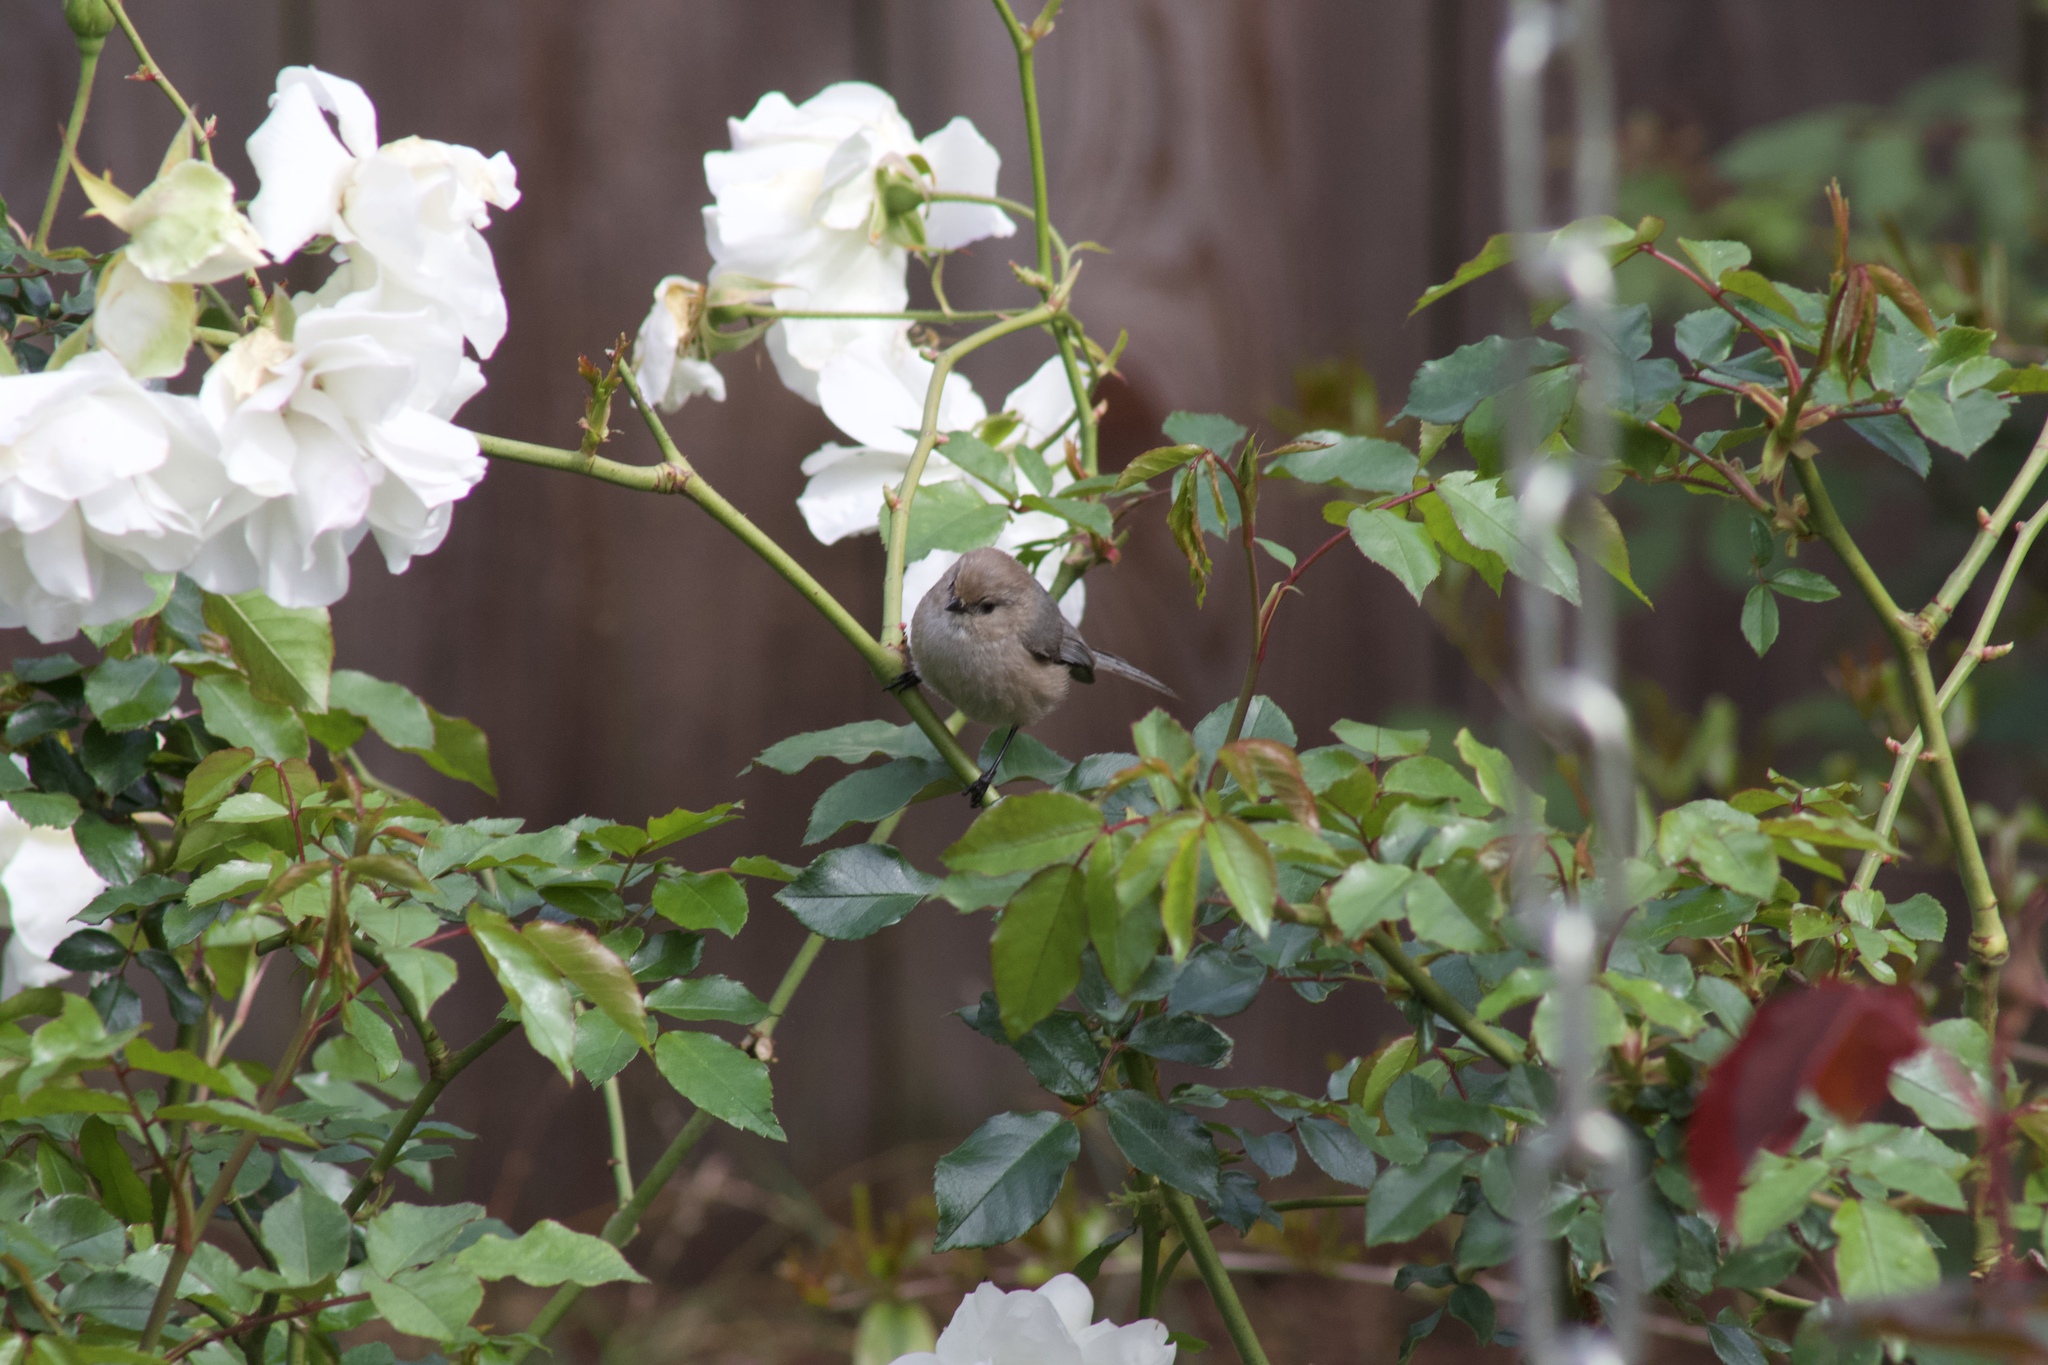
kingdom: Animalia
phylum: Chordata
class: Aves
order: Passeriformes
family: Aegithalidae
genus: Psaltriparus
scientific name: Psaltriparus minimus
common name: American bushtit
